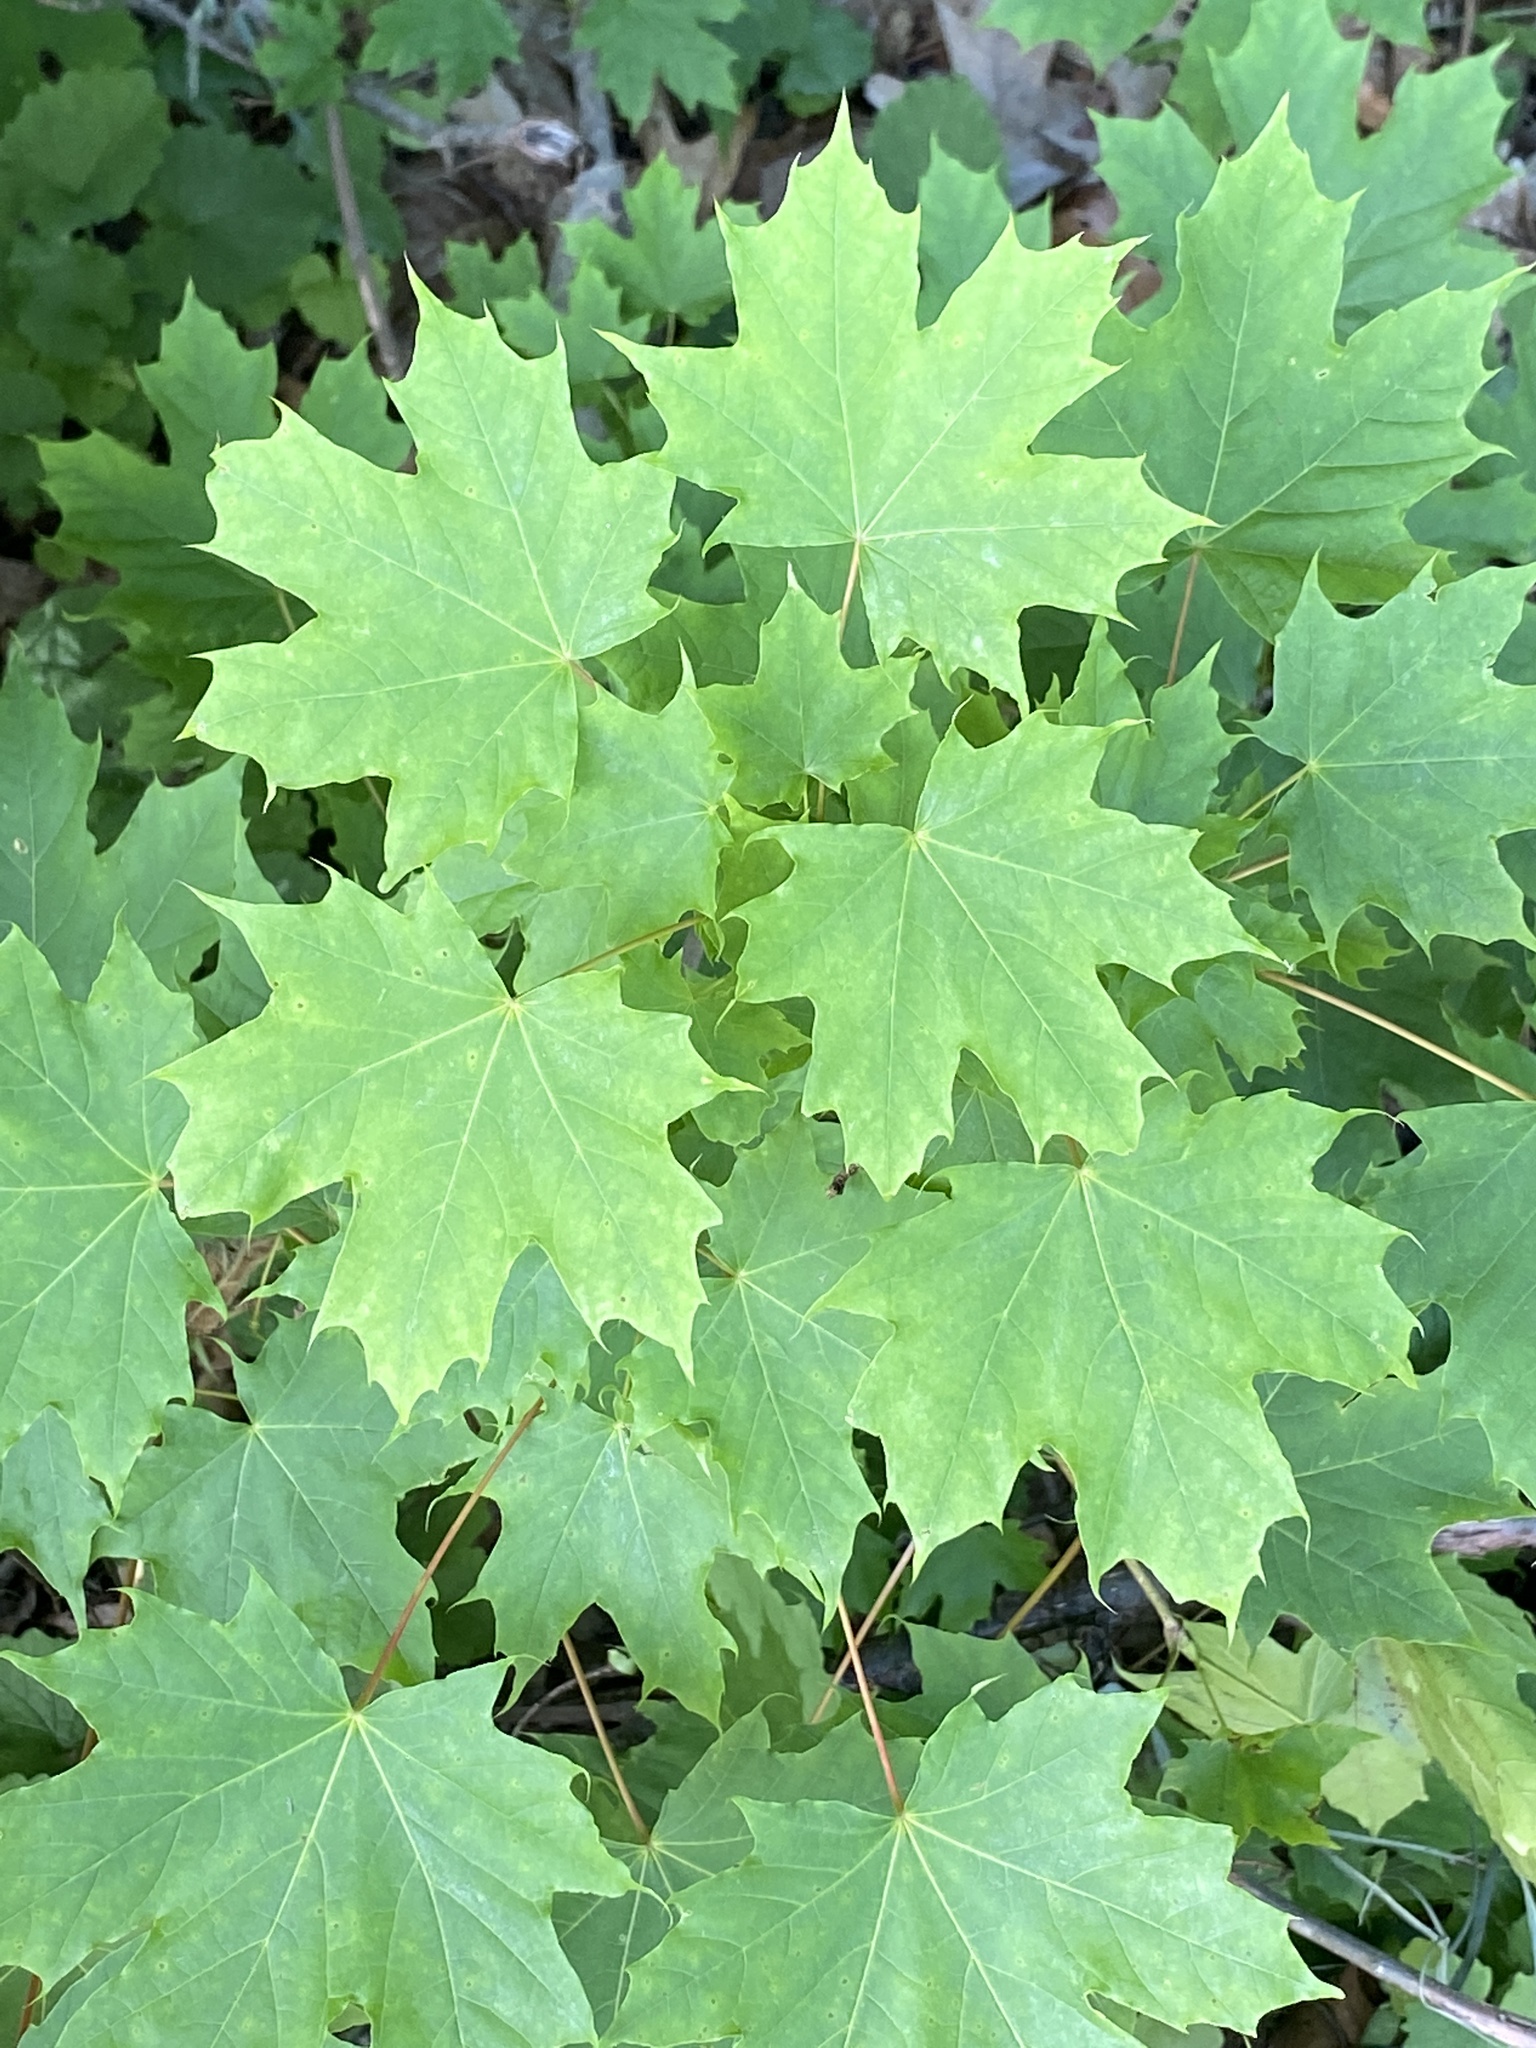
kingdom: Plantae
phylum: Tracheophyta
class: Magnoliopsida
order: Sapindales
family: Sapindaceae
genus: Acer
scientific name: Acer platanoides
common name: Norway maple
